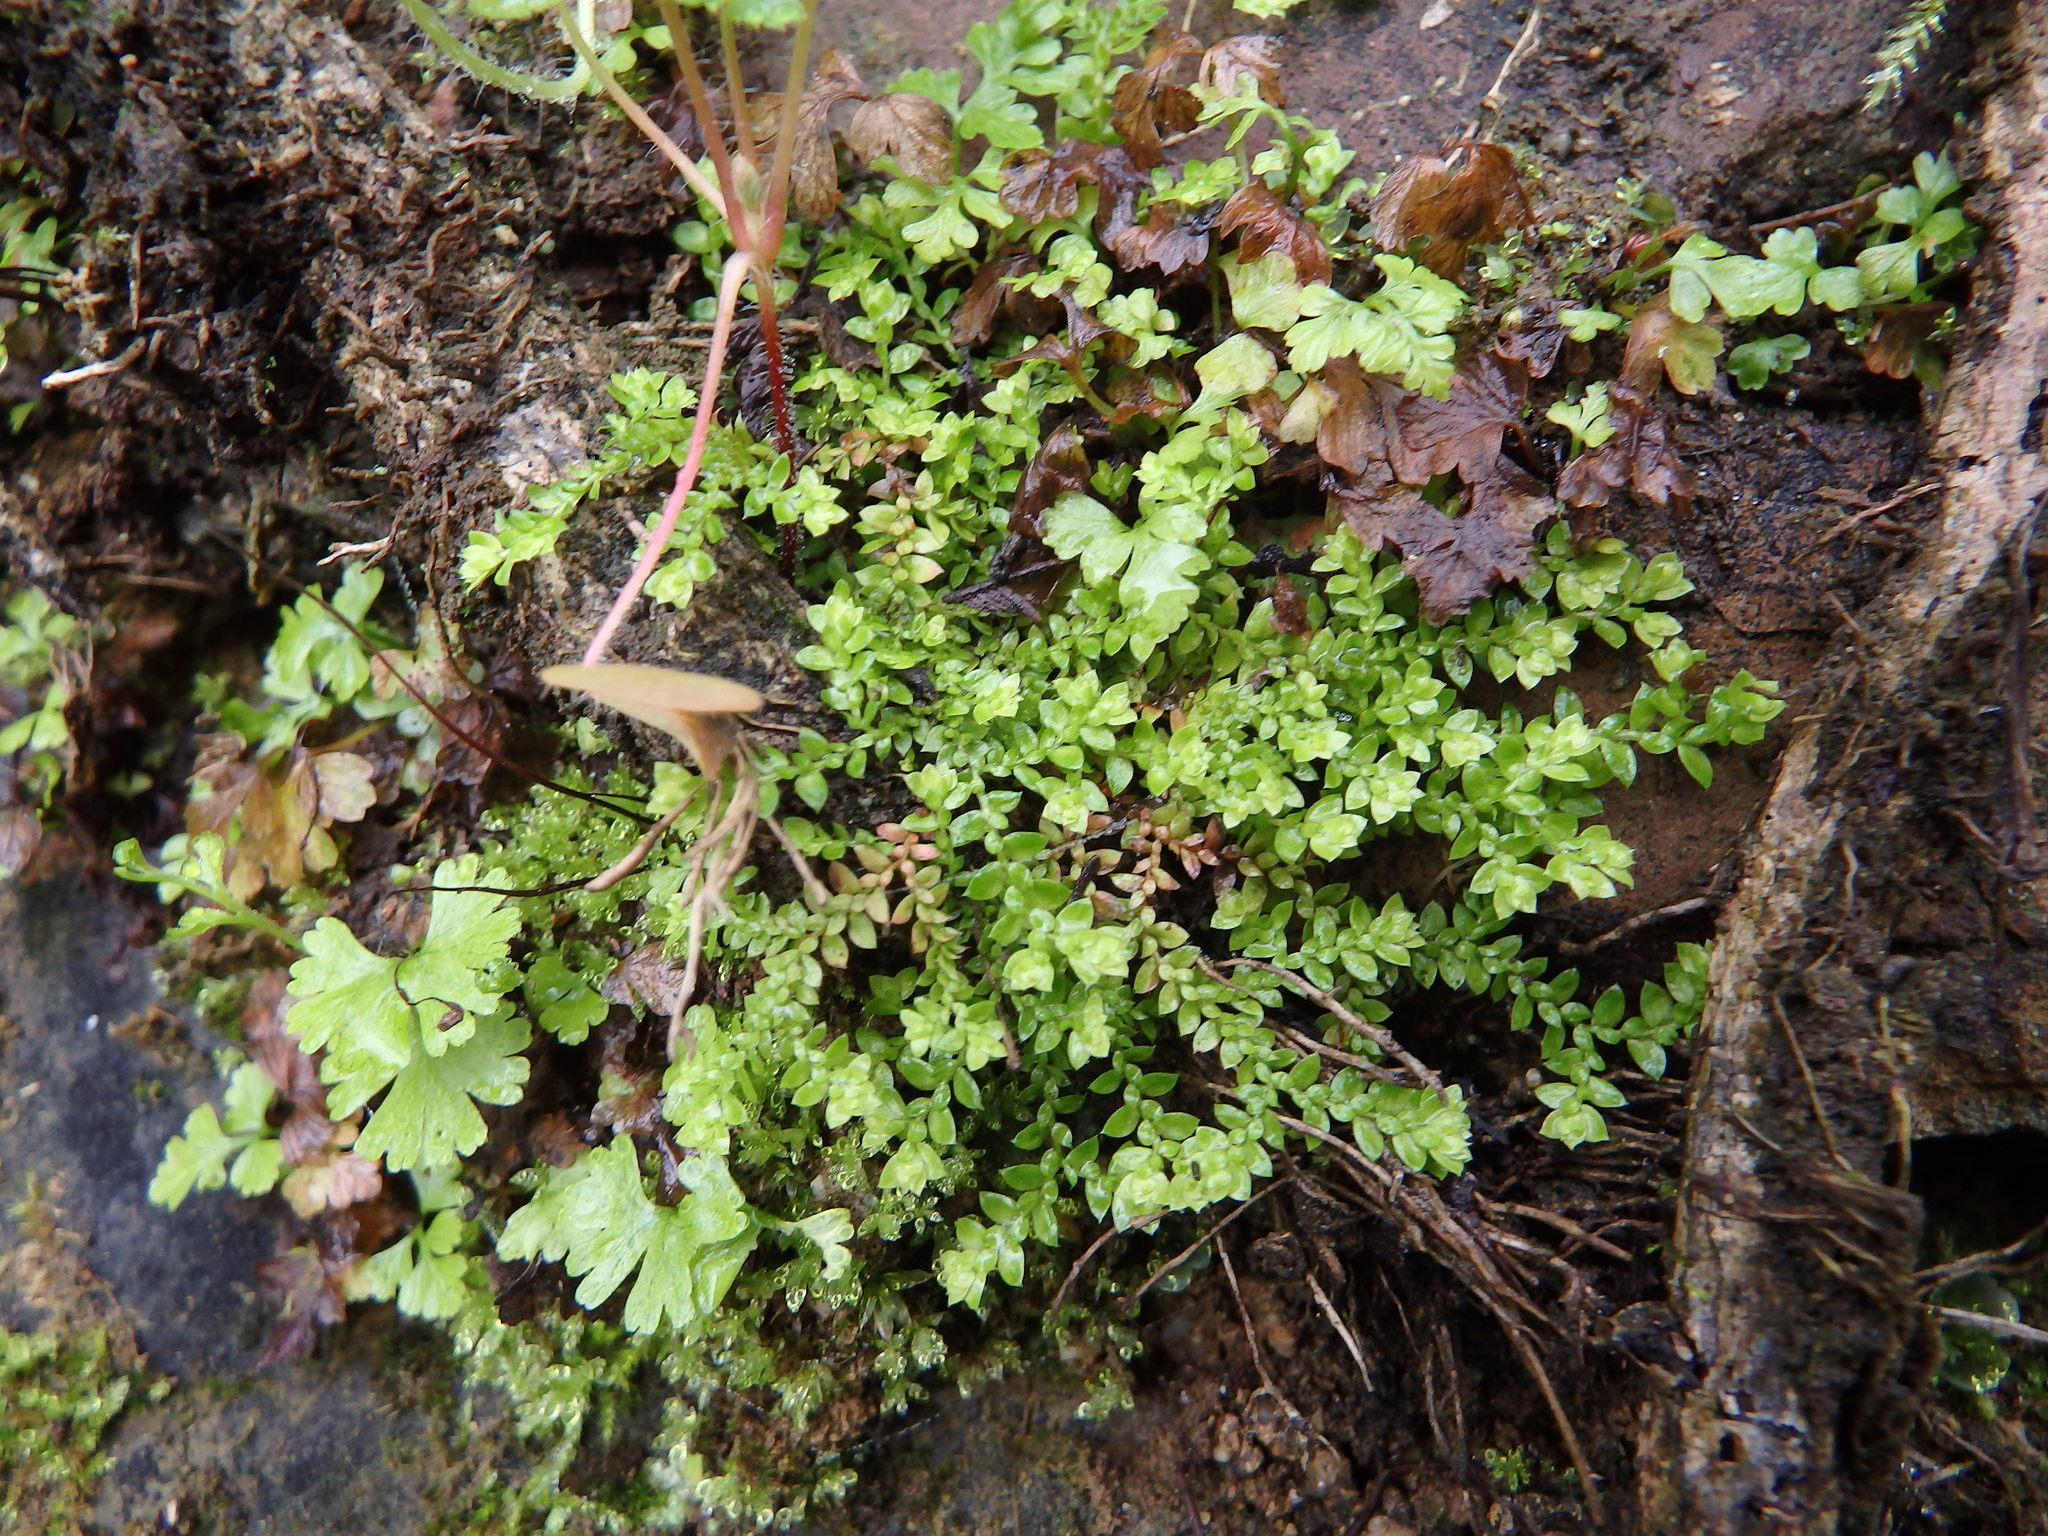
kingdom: Plantae
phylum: Tracheophyta
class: Lycopodiopsida
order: Selaginellales
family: Selaginellaceae
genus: Selaginella
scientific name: Selaginella denticulata
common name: Toothed-leaved clubmoss
